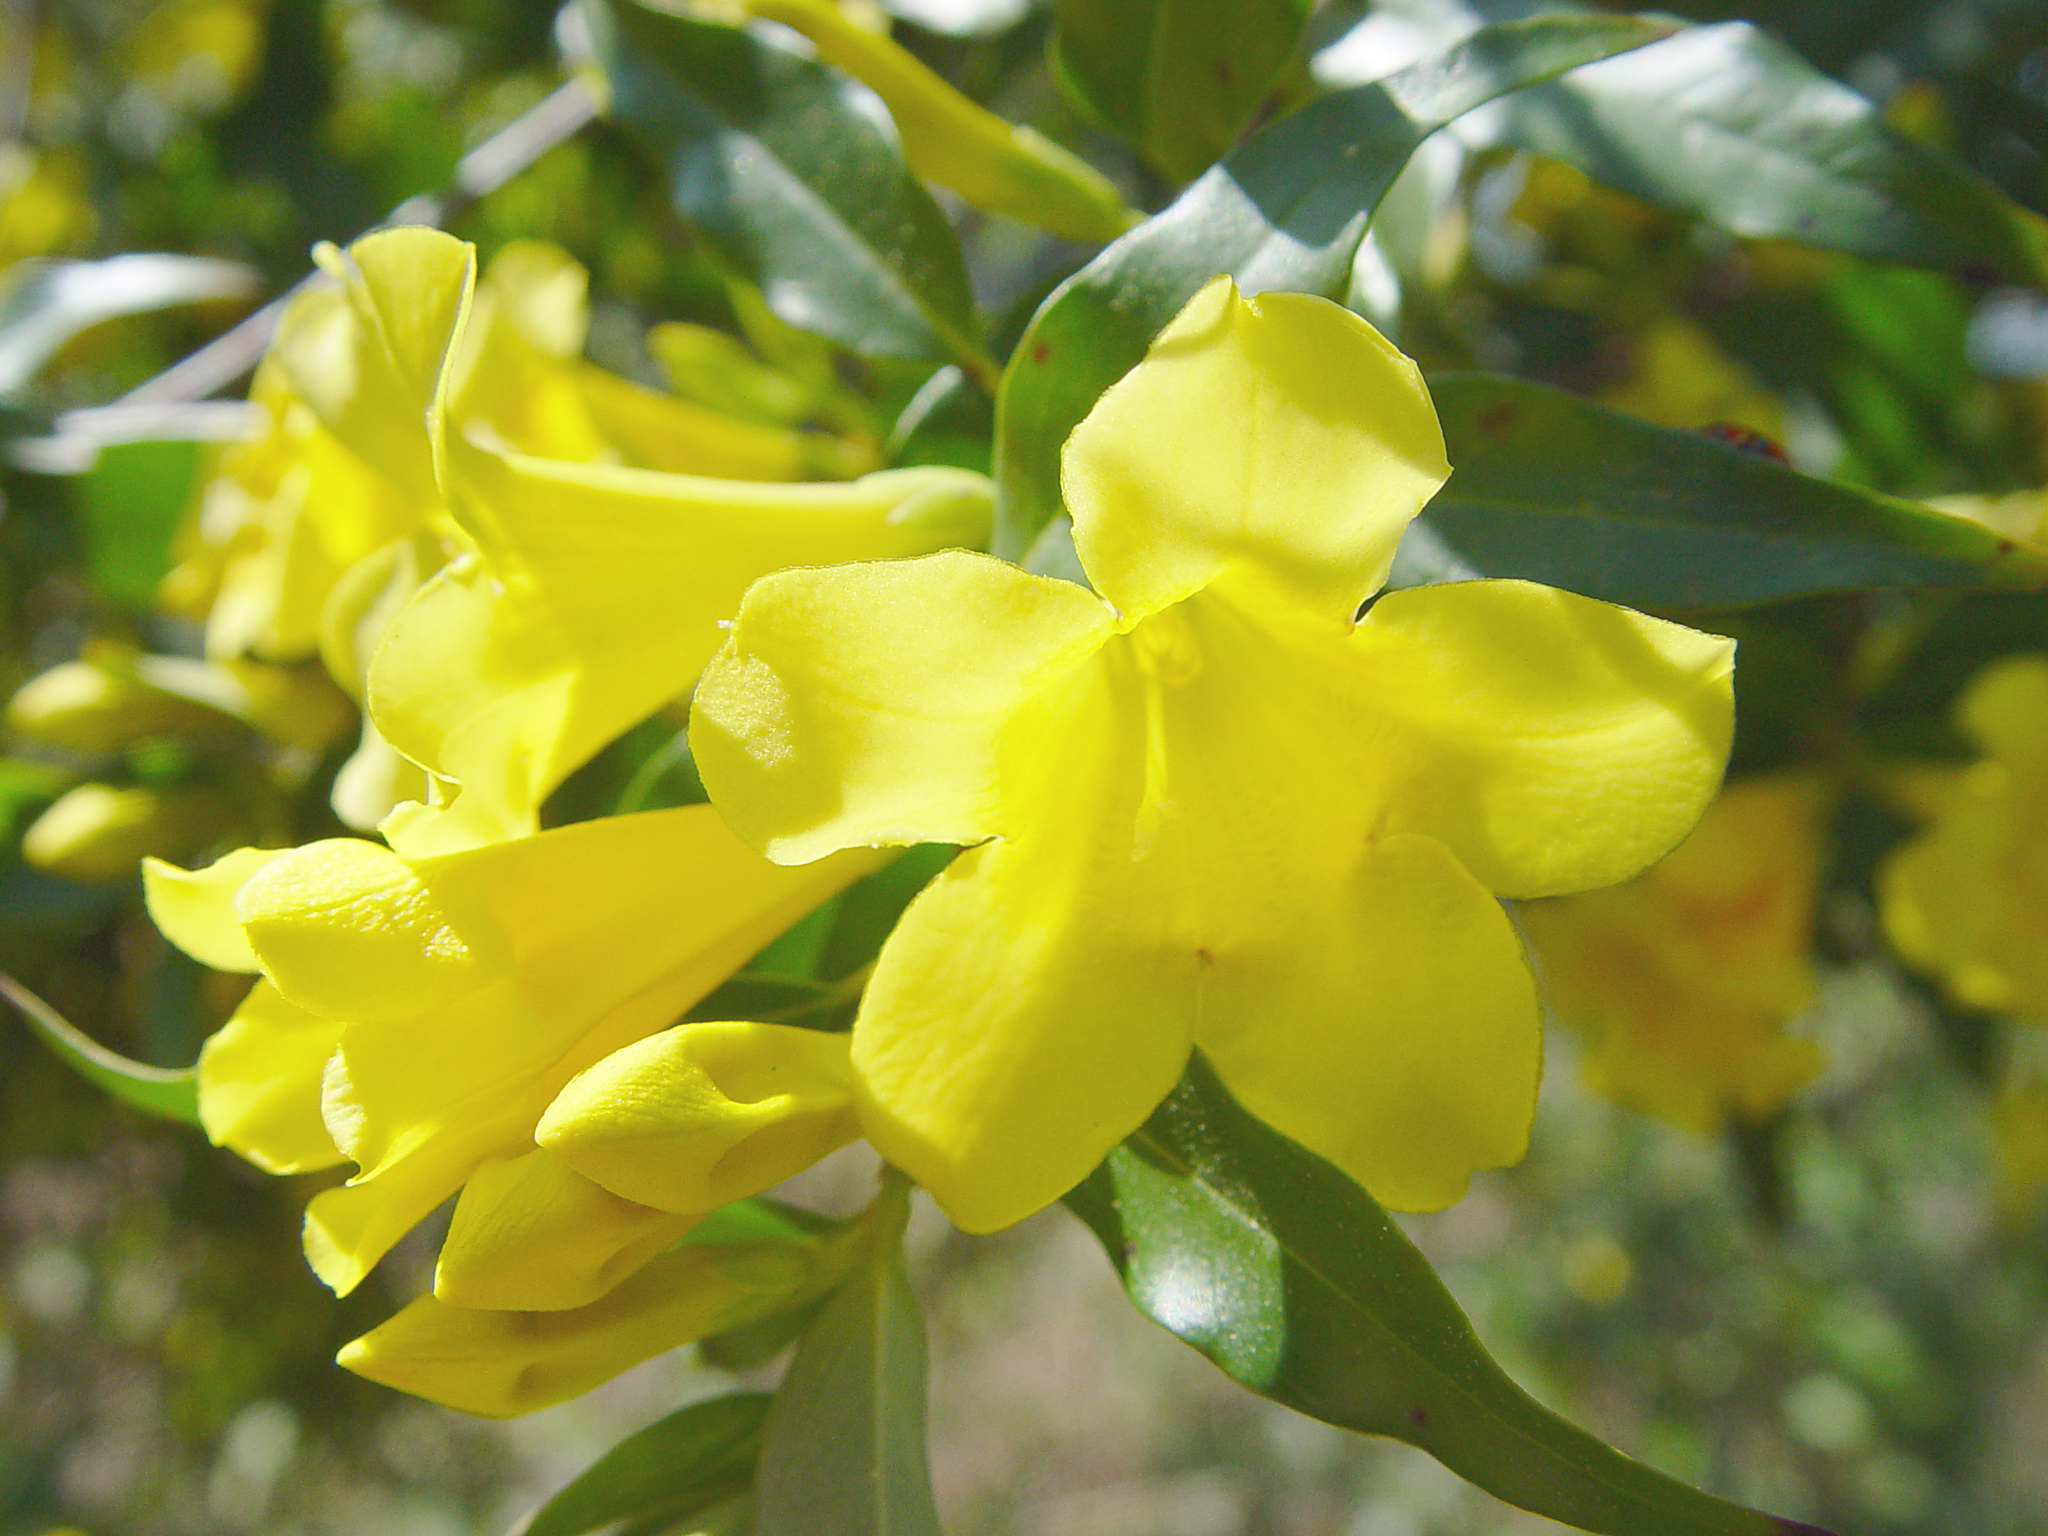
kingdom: Plantae
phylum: Tracheophyta
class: Magnoliopsida
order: Gentianales
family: Gelsemiaceae
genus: Gelsemium
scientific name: Gelsemium sempervirens
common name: Carolina-jasmine
